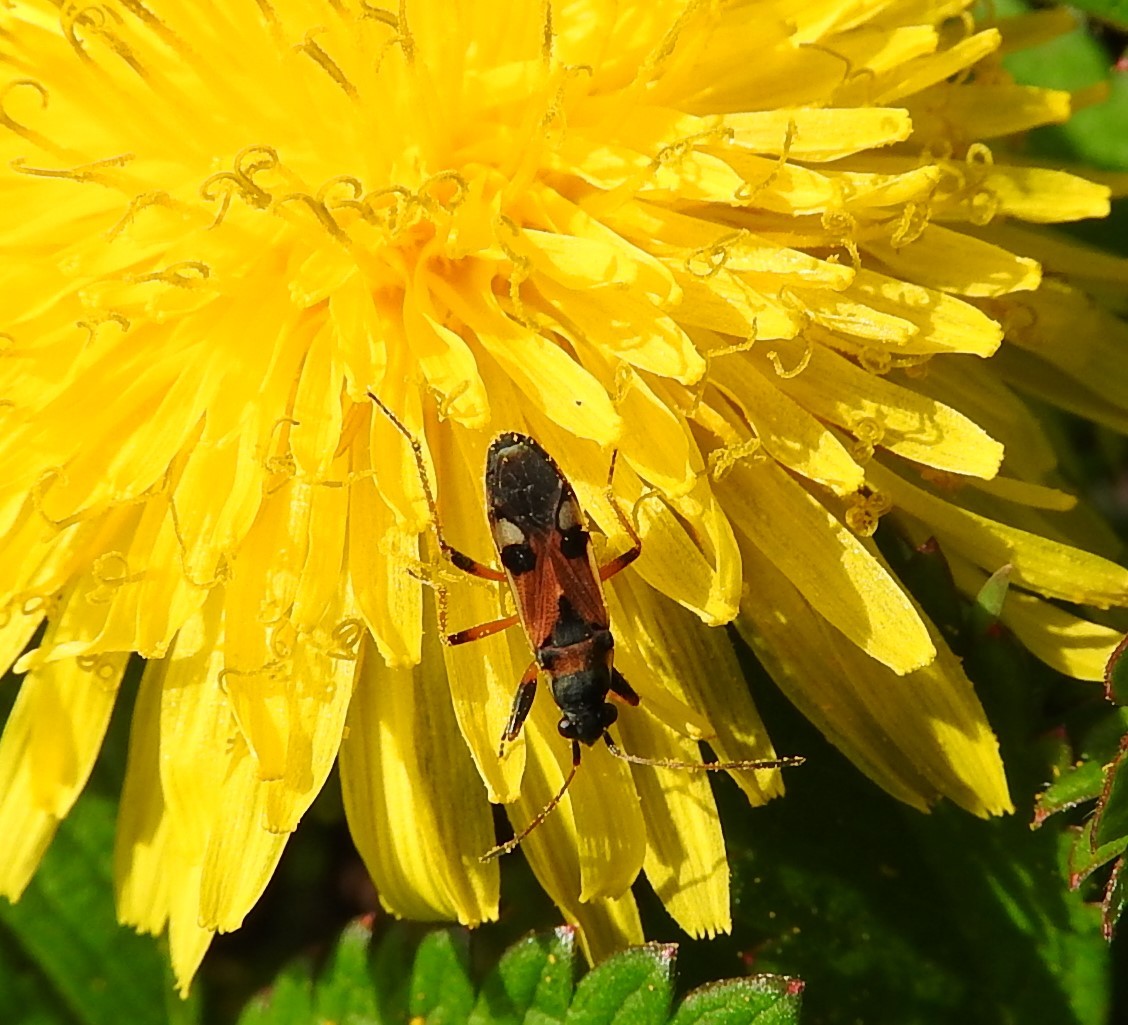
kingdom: Animalia
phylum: Arthropoda
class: Insecta
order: Hemiptera
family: Rhyparochromidae
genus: Beosus
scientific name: Beosus quadripunctatus
